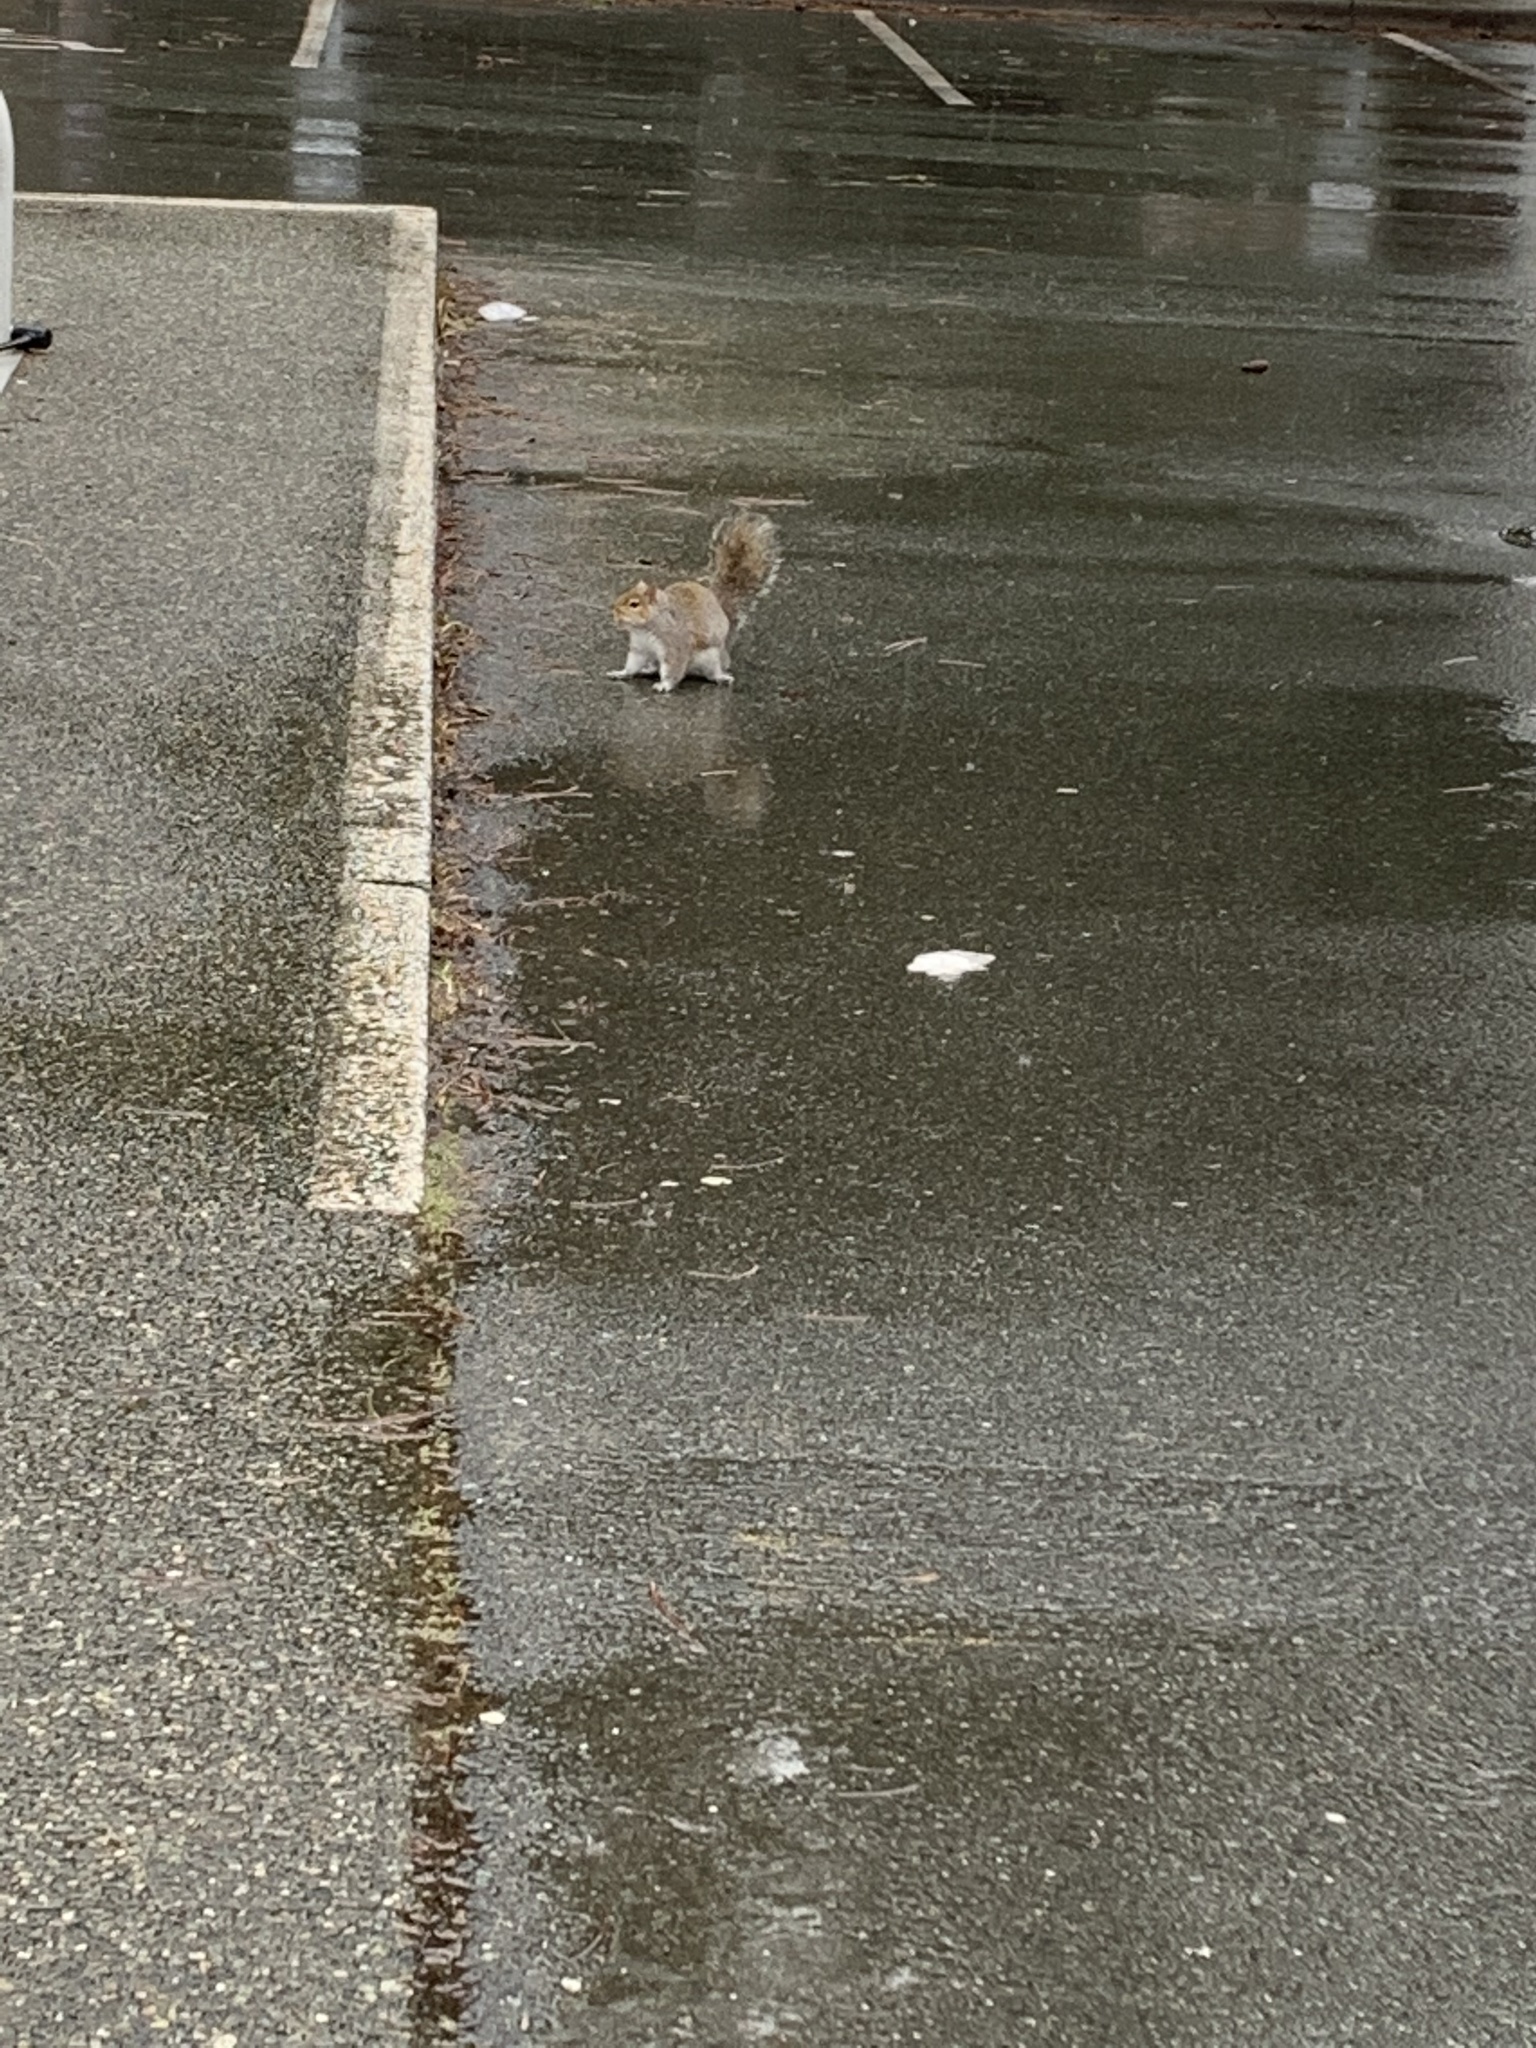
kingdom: Animalia
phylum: Chordata
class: Mammalia
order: Rodentia
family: Sciuridae
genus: Sciurus
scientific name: Sciurus carolinensis
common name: Eastern gray squirrel
